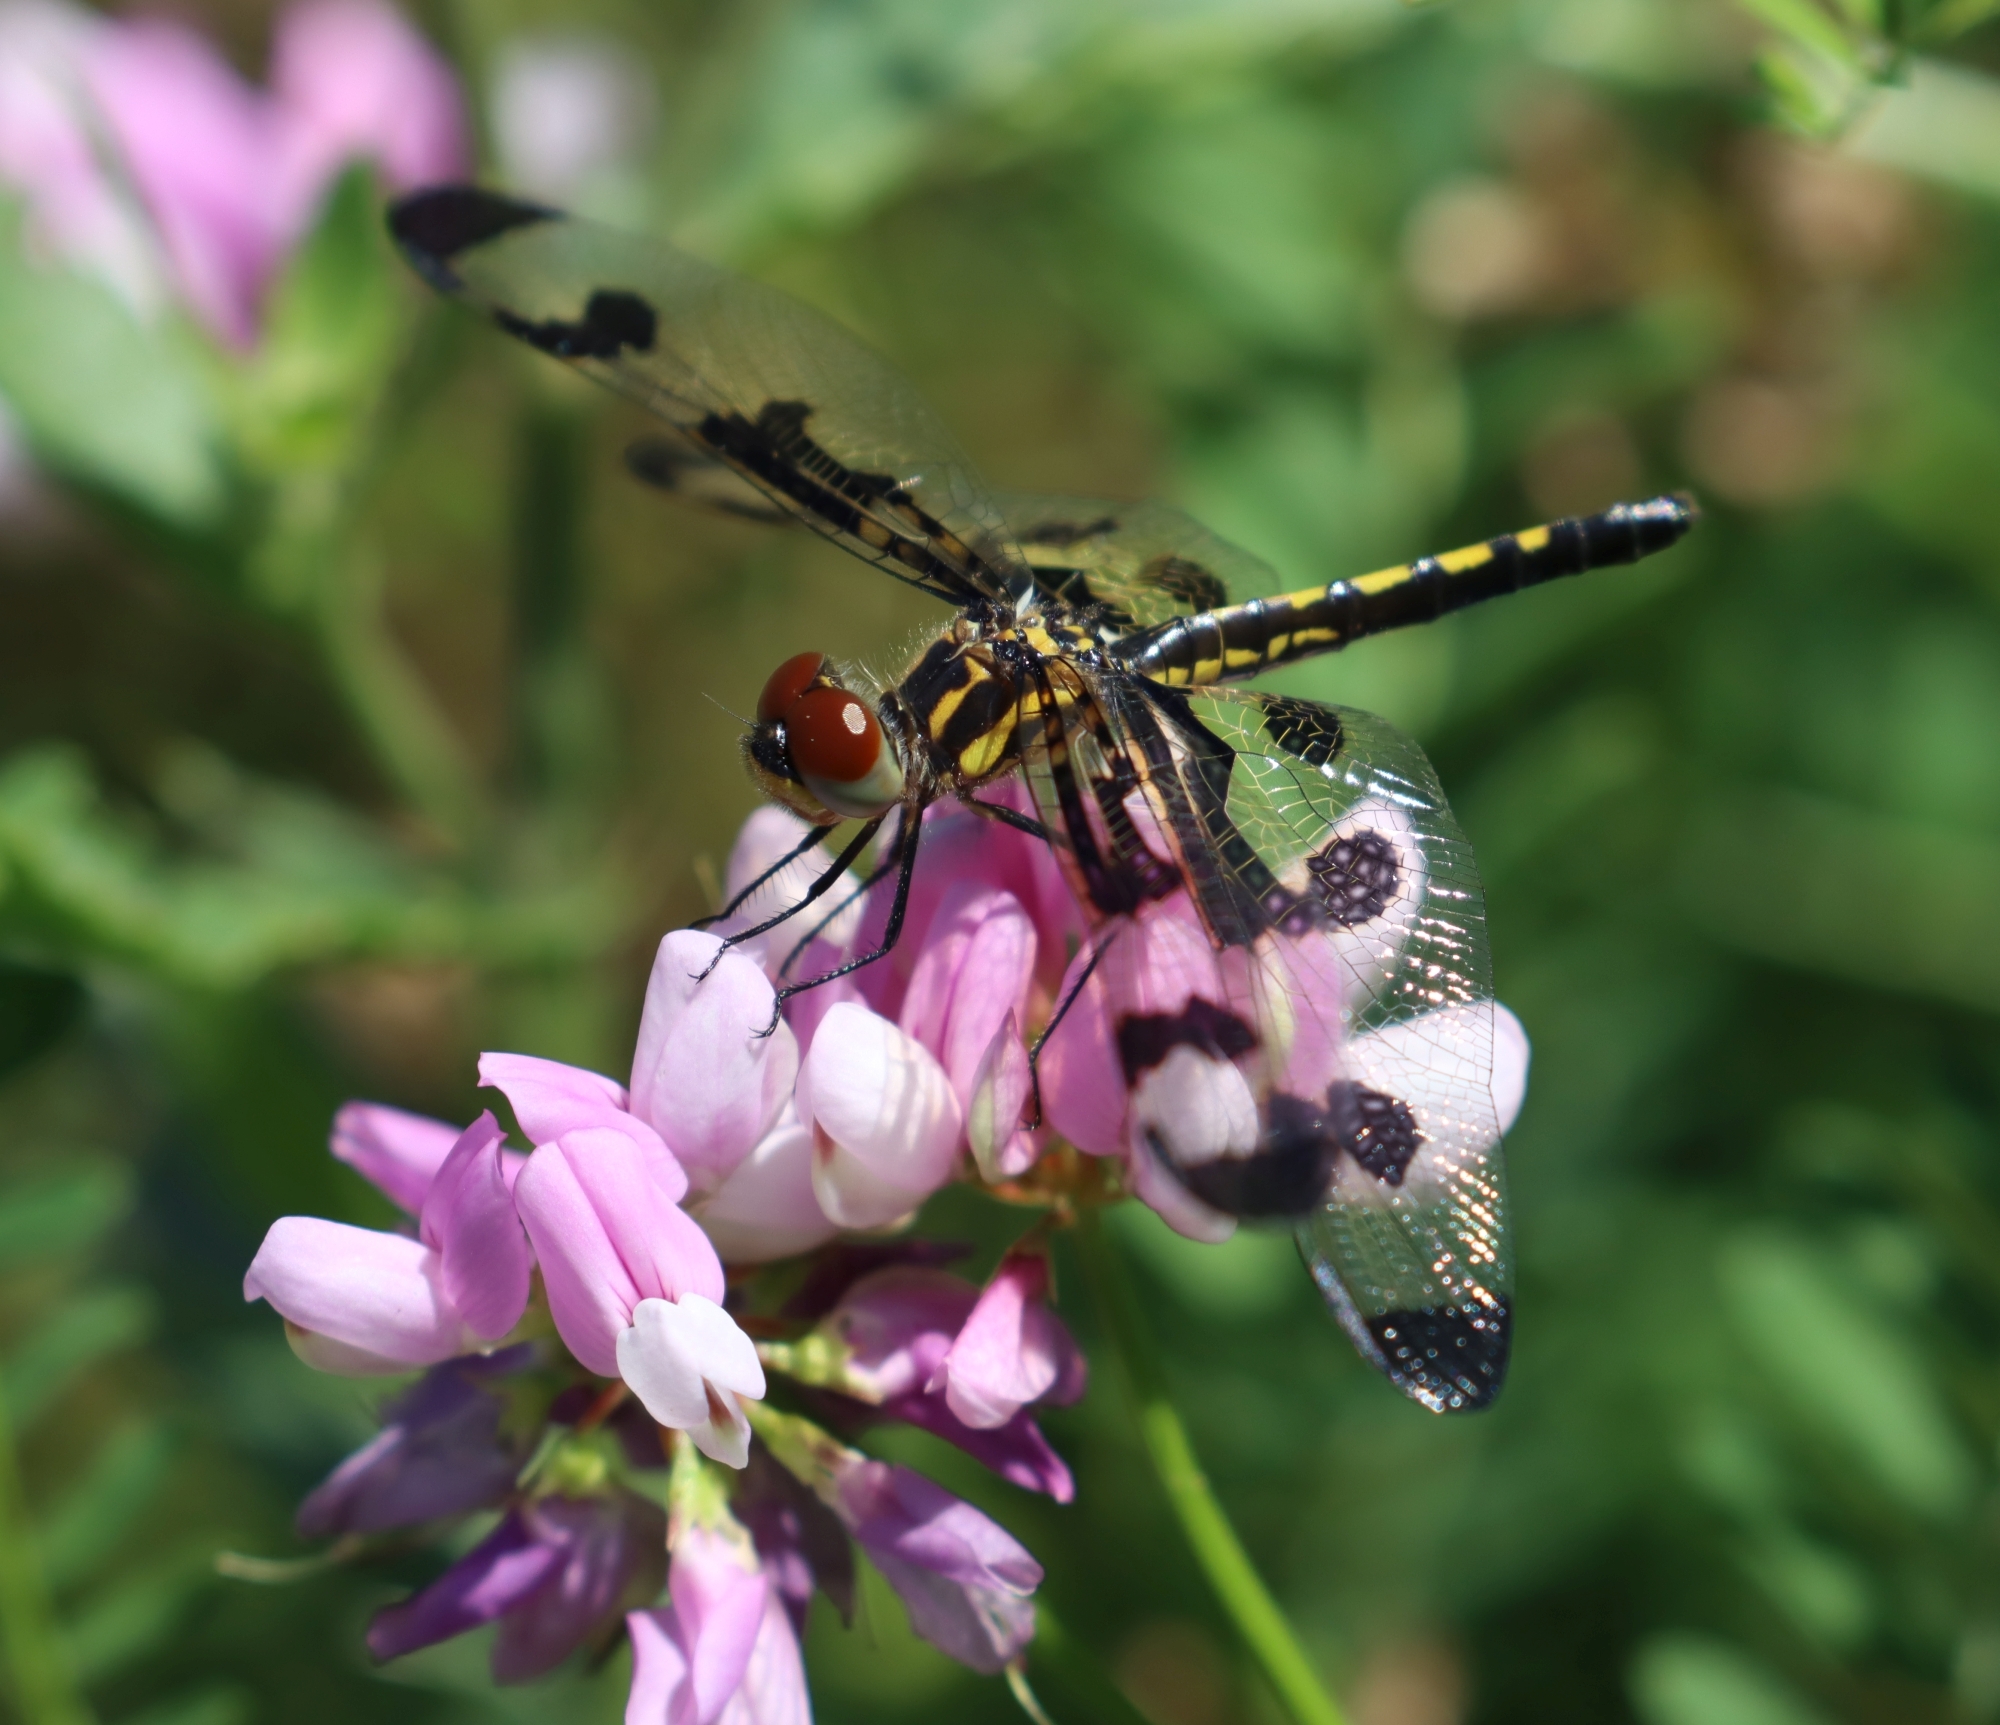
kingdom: Animalia
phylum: Arthropoda
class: Insecta
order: Odonata
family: Libellulidae
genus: Celithemis
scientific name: Celithemis fasciata
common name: Banded pennant
